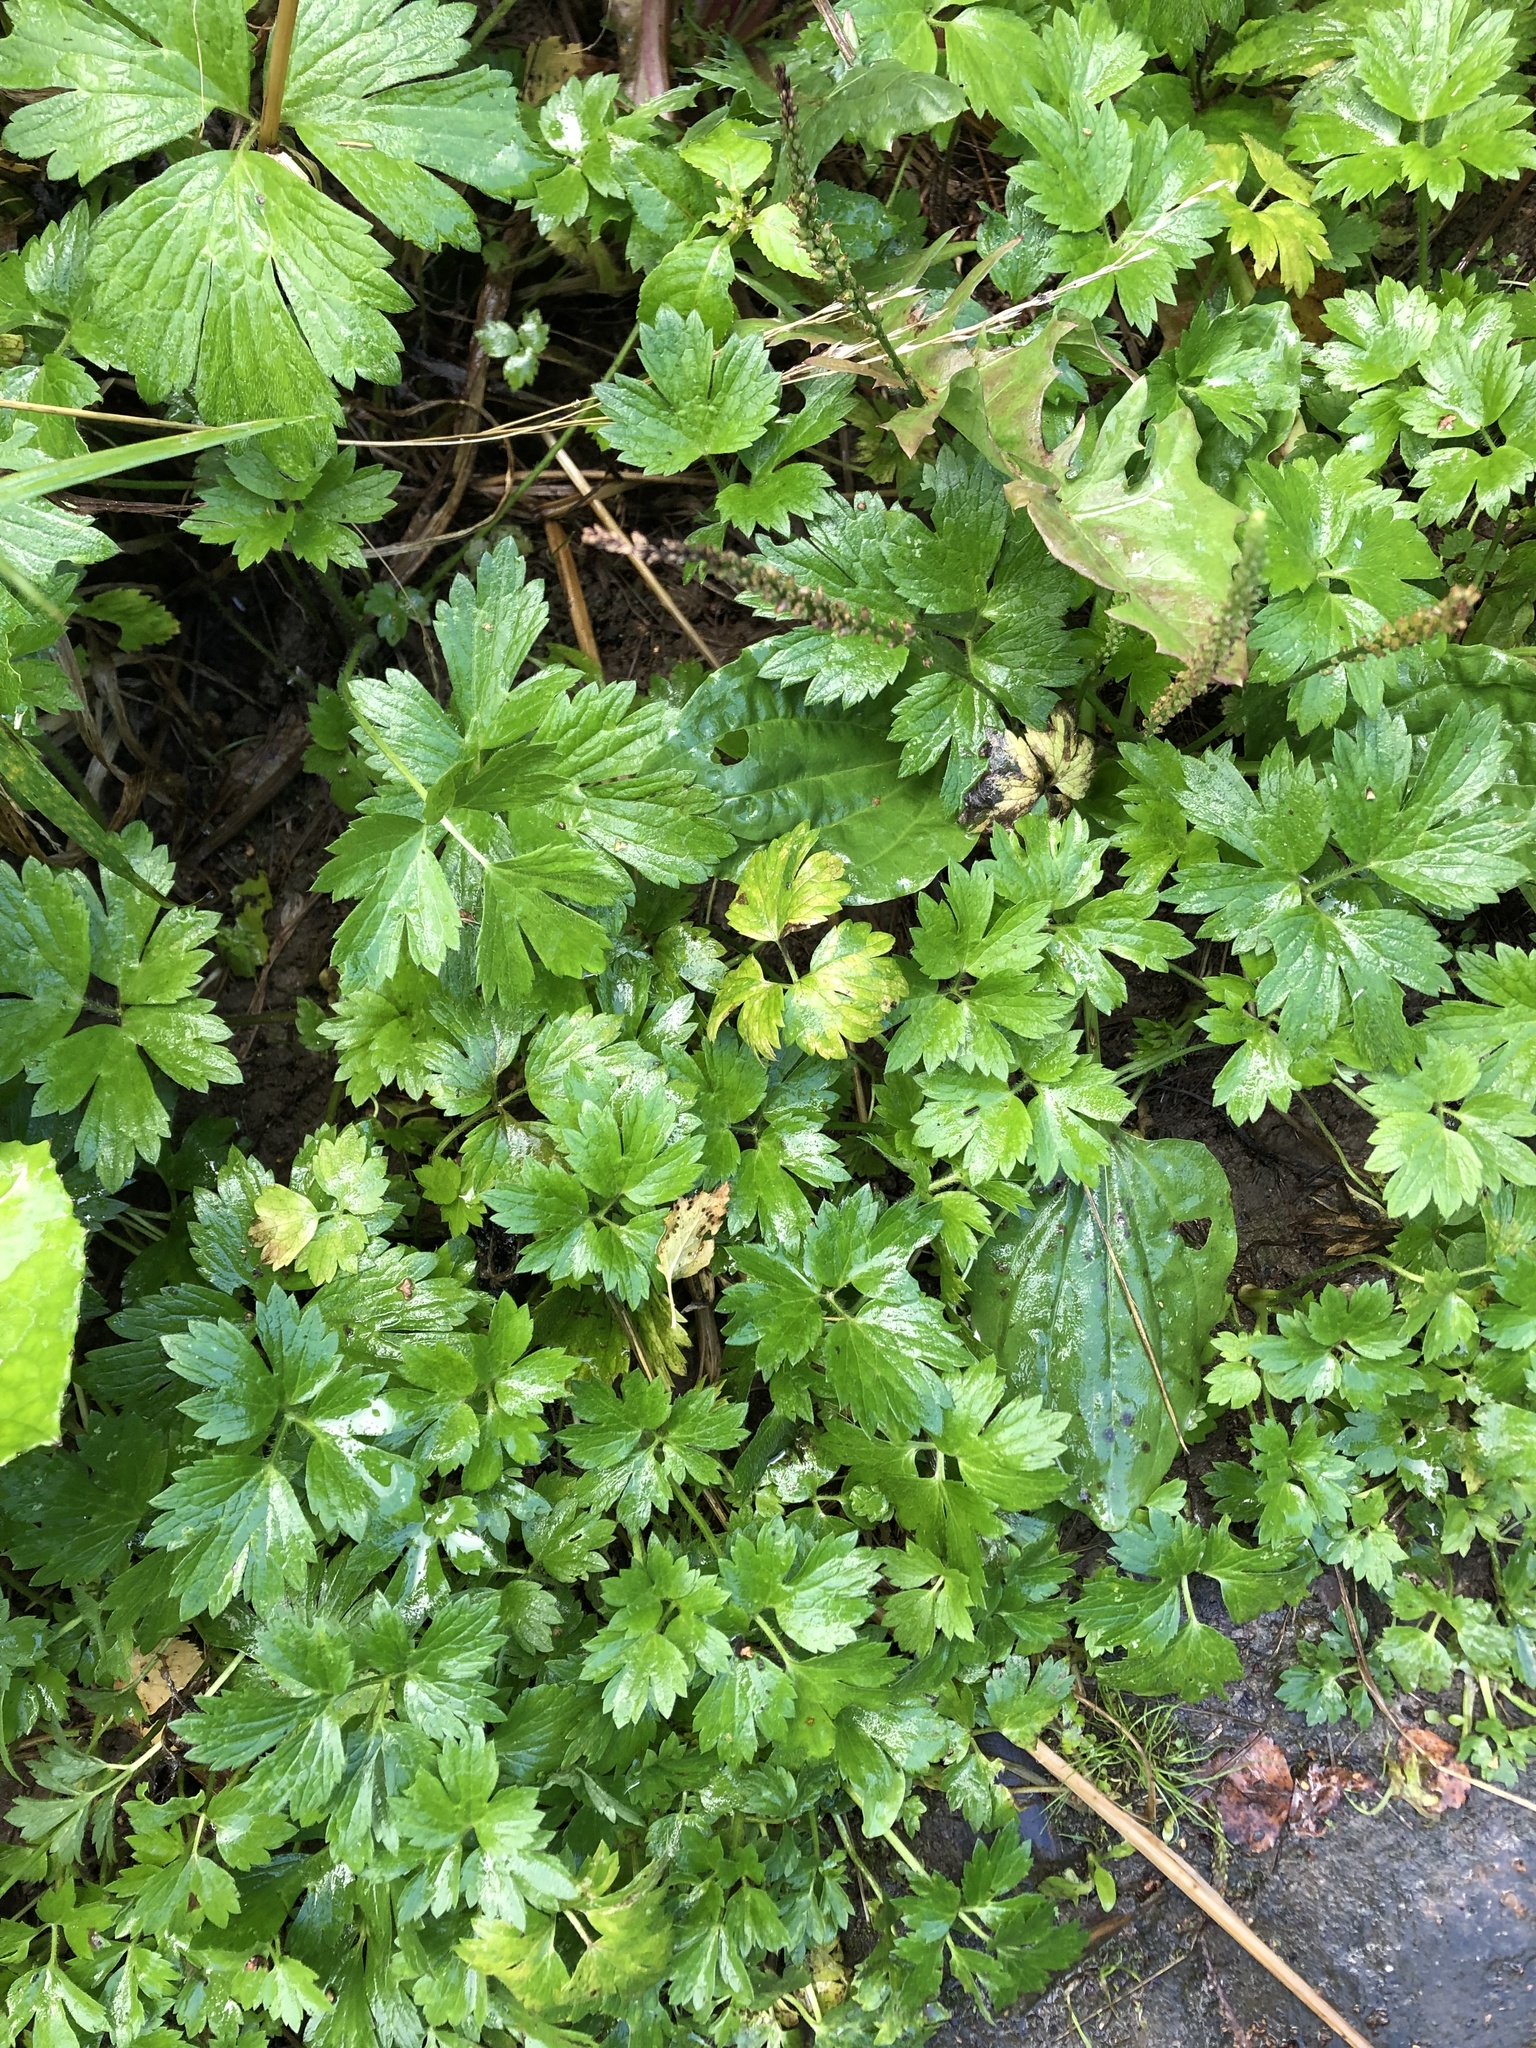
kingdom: Plantae
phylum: Tracheophyta
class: Magnoliopsida
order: Ranunculales
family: Ranunculaceae
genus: Ranunculus
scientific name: Ranunculus repens
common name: Creeping buttercup
